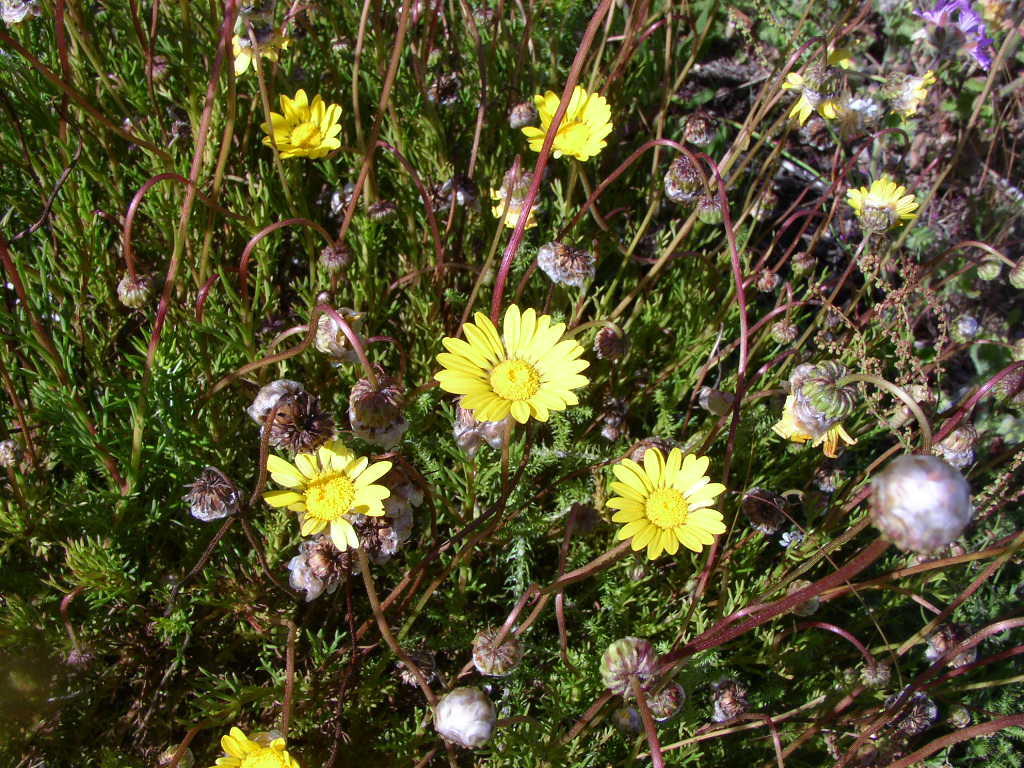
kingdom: Plantae
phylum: Tracheophyta
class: Magnoliopsida
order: Asterales
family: Asteraceae
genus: Ursinia
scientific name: Ursinia paleacea
